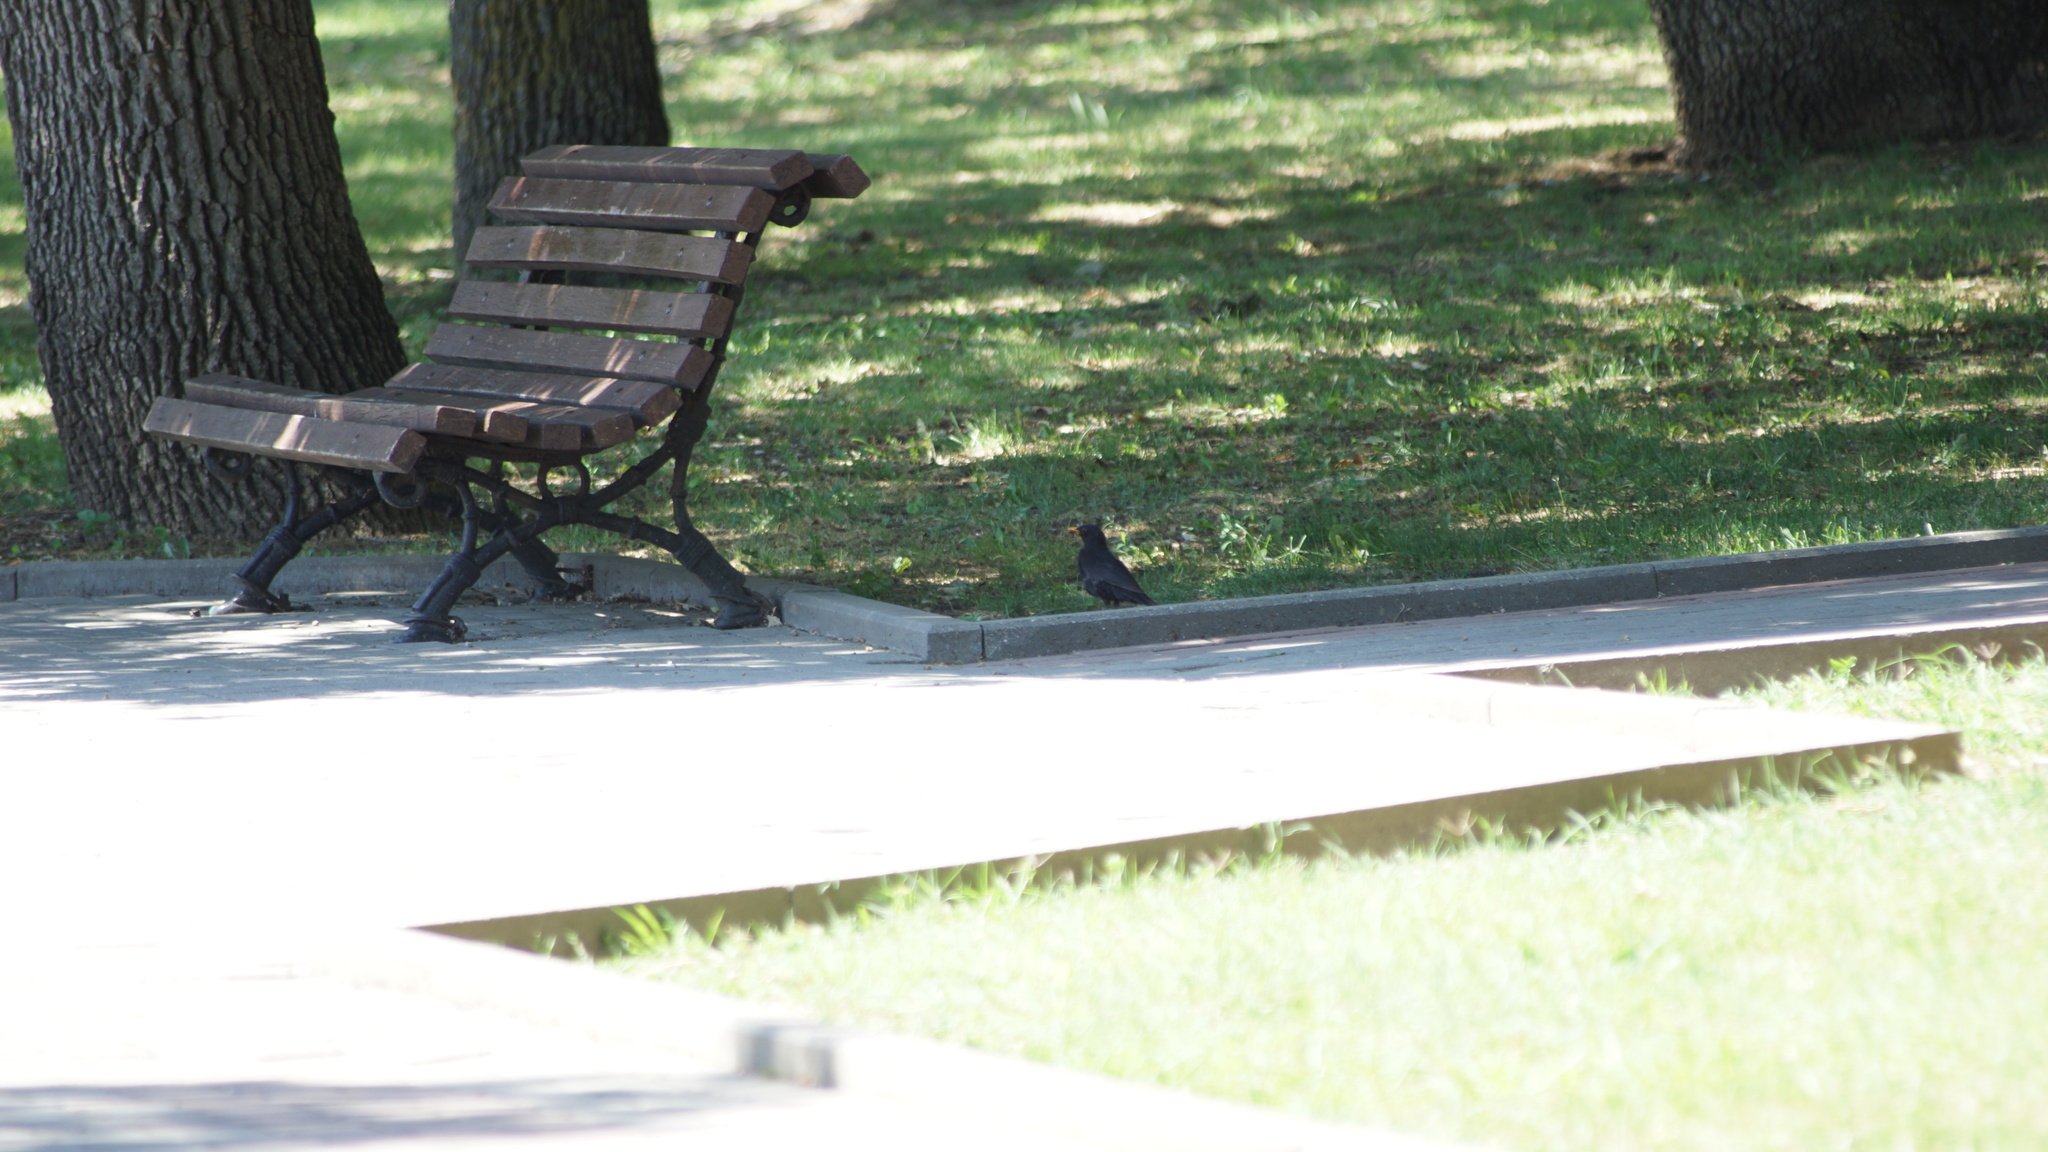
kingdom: Animalia
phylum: Chordata
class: Aves
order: Passeriformes
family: Turdidae
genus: Turdus
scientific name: Turdus merula
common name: Common blackbird
